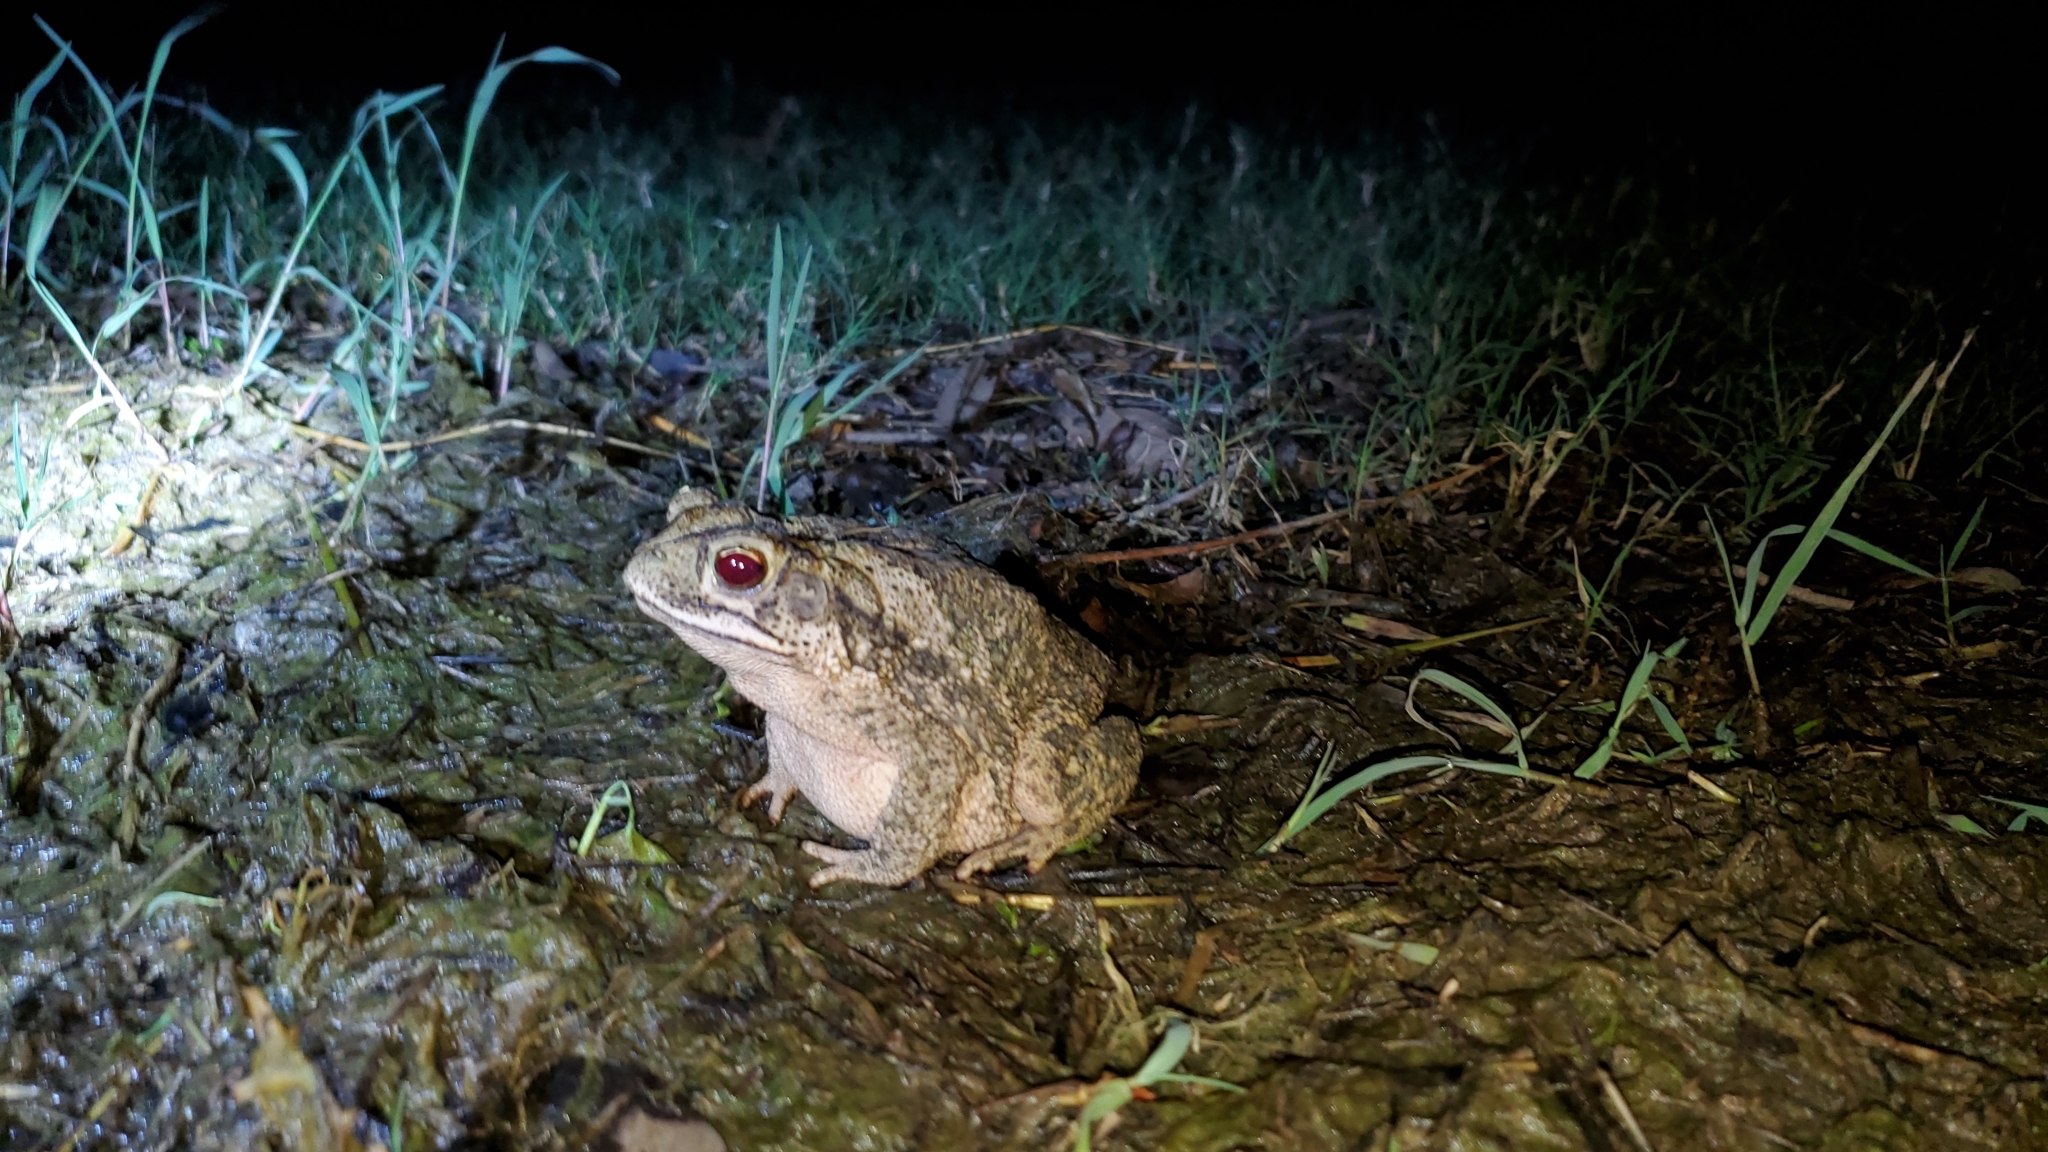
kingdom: Animalia
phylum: Chordata
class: Amphibia
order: Anura
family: Bufonidae
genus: Incilius
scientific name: Incilius nebulifer
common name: Gulf coast toad
